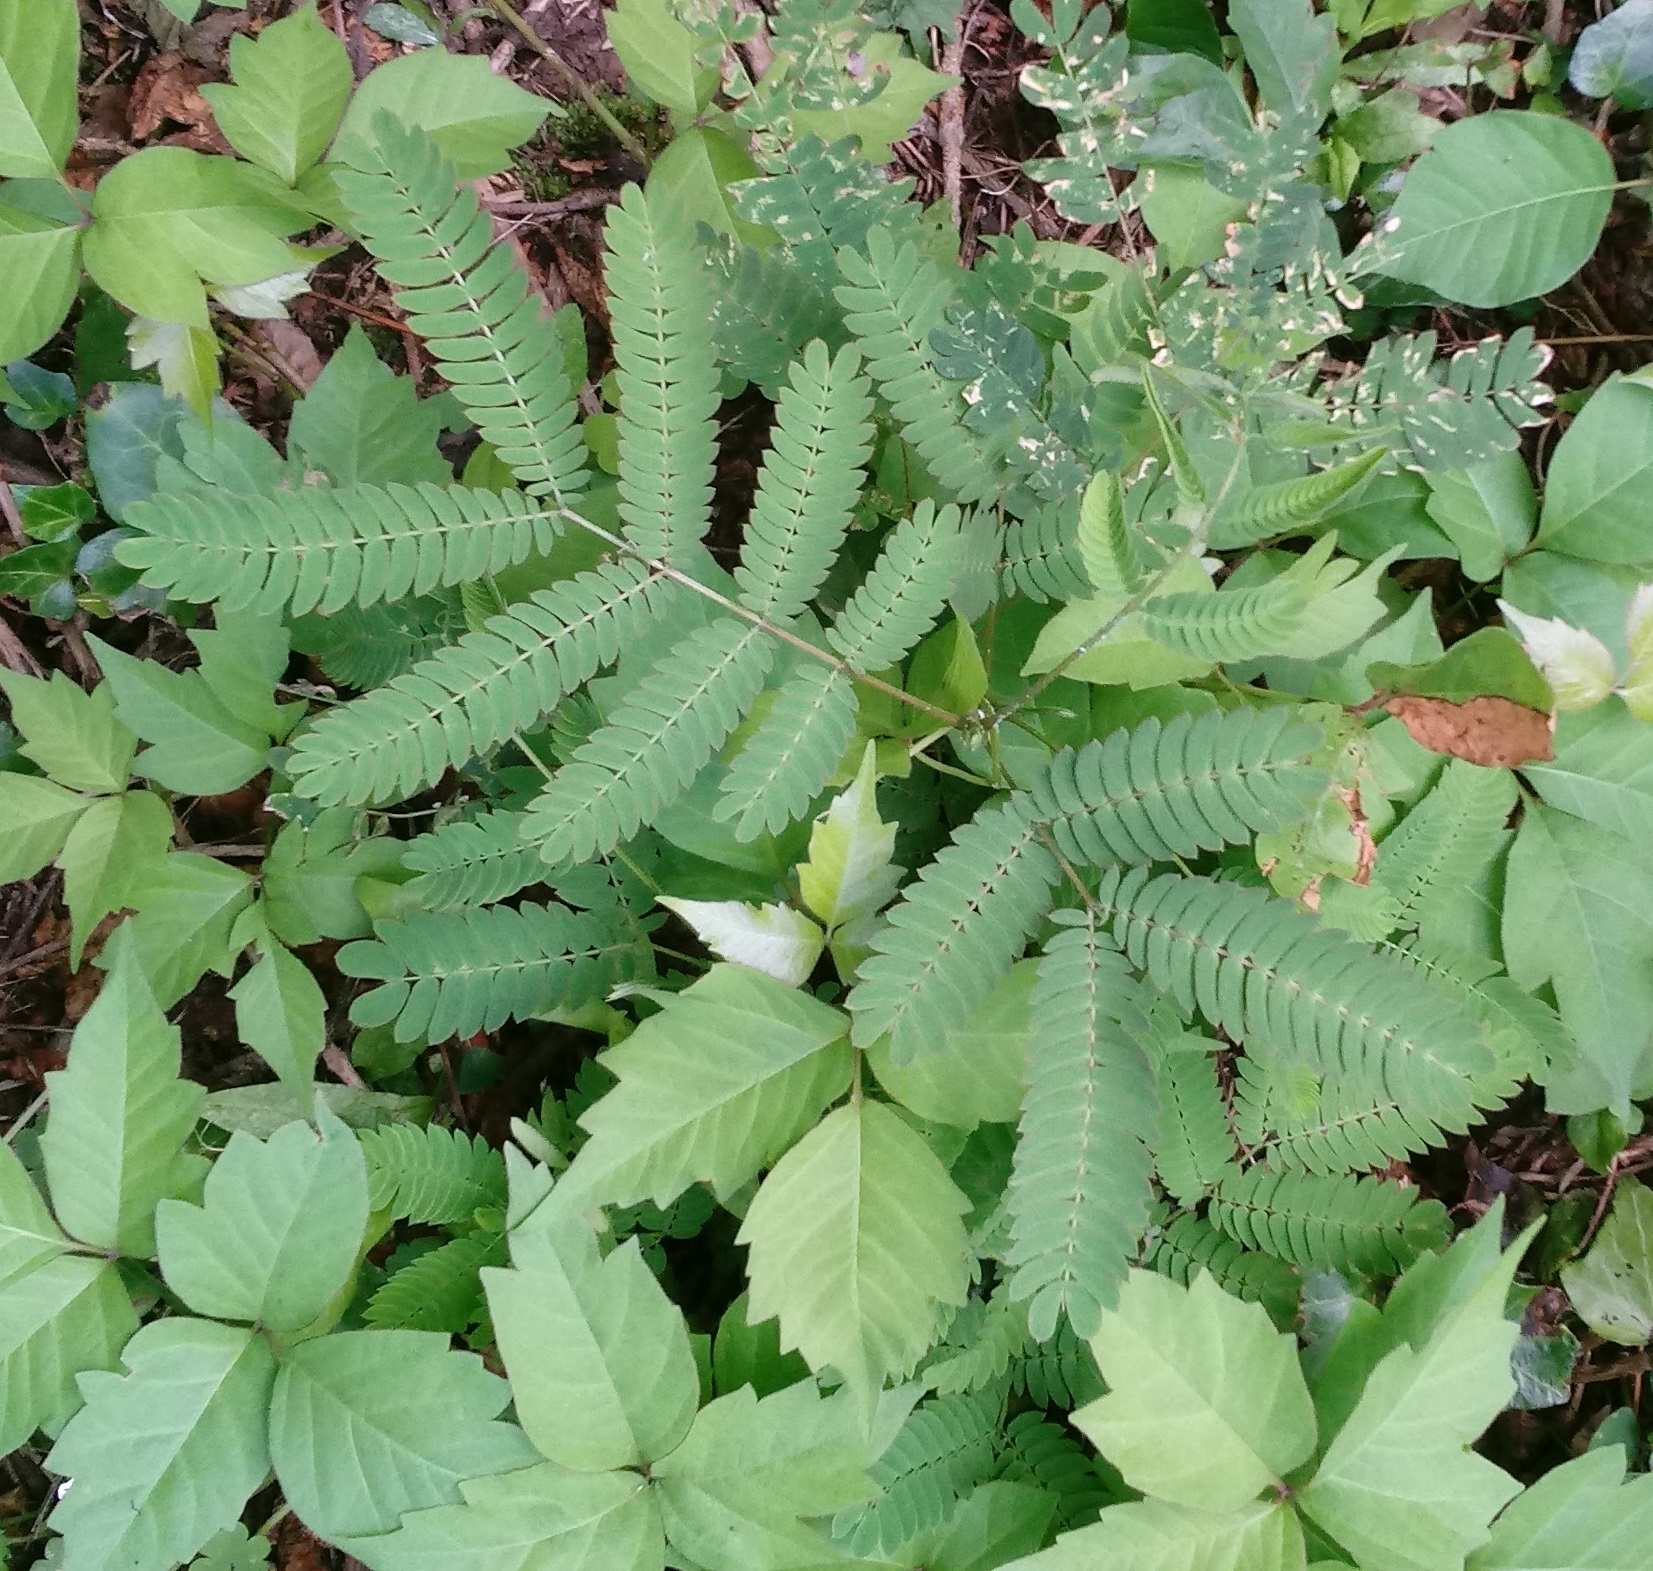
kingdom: Plantae
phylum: Tracheophyta
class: Magnoliopsida
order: Fabales
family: Fabaceae
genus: Albizia
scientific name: Albizia julibrissin
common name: Silktree
